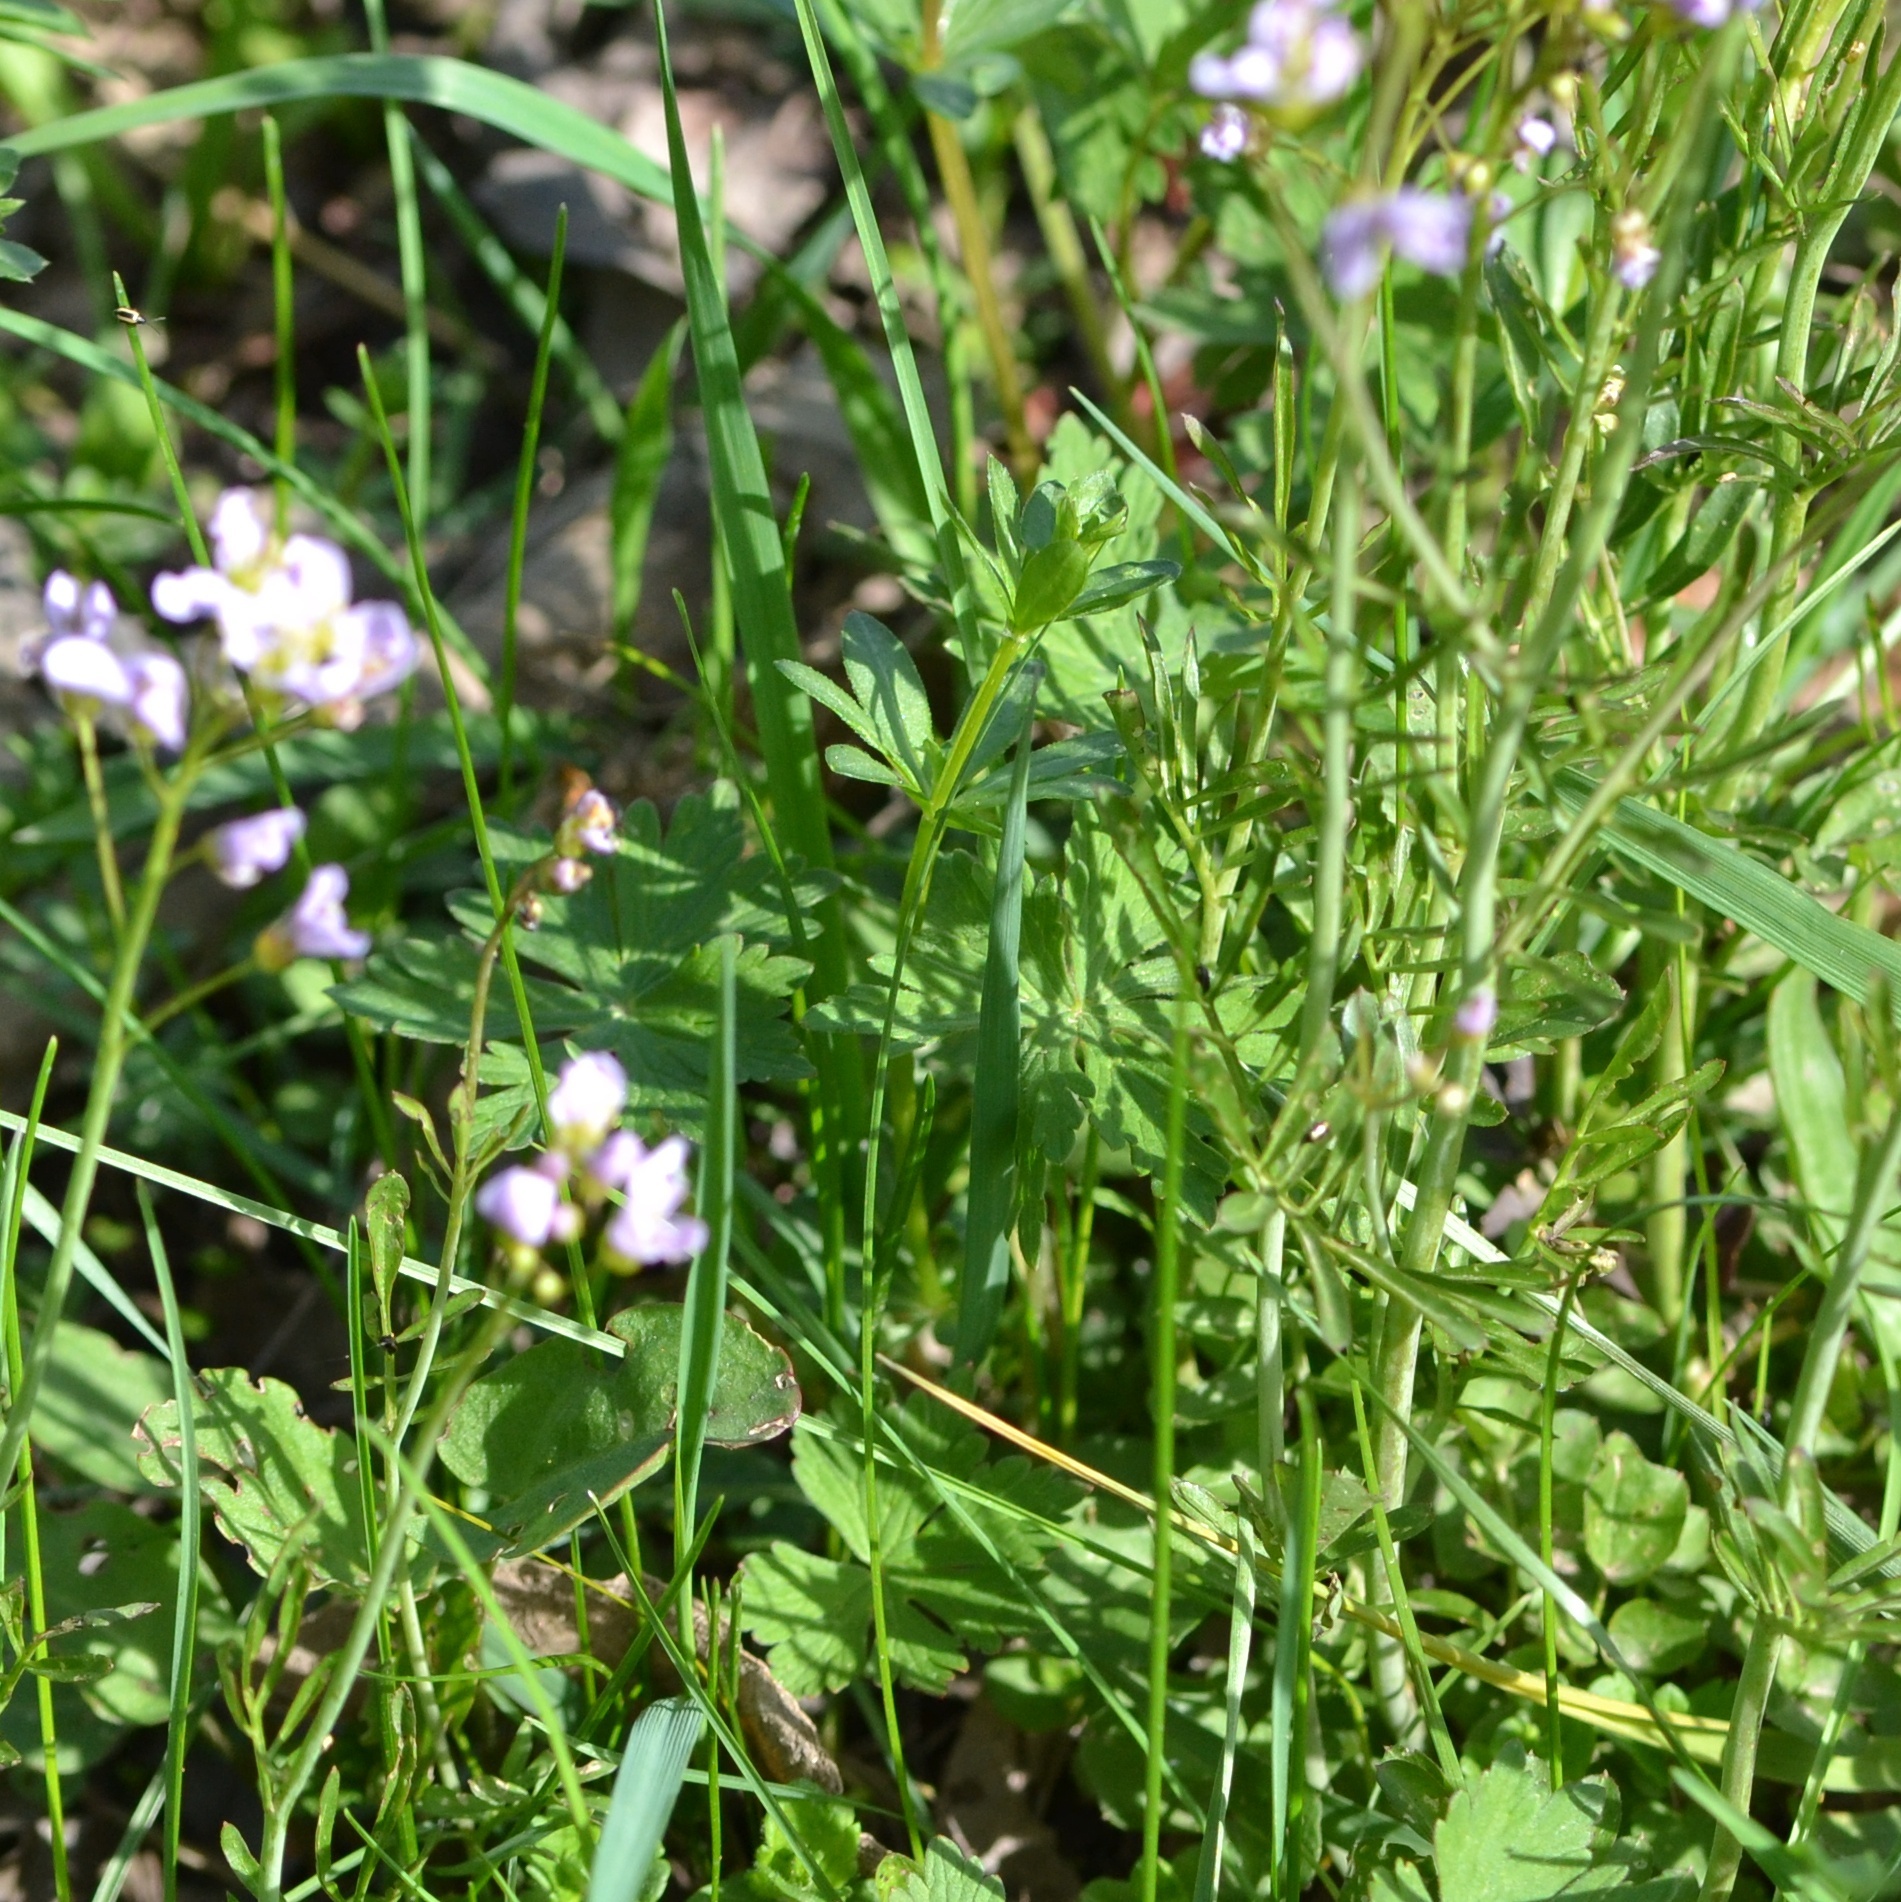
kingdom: Plantae
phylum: Tracheophyta
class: Magnoliopsida
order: Brassicales
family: Brassicaceae
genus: Cardamine
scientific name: Cardamine pratensis
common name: Cuckoo flower
